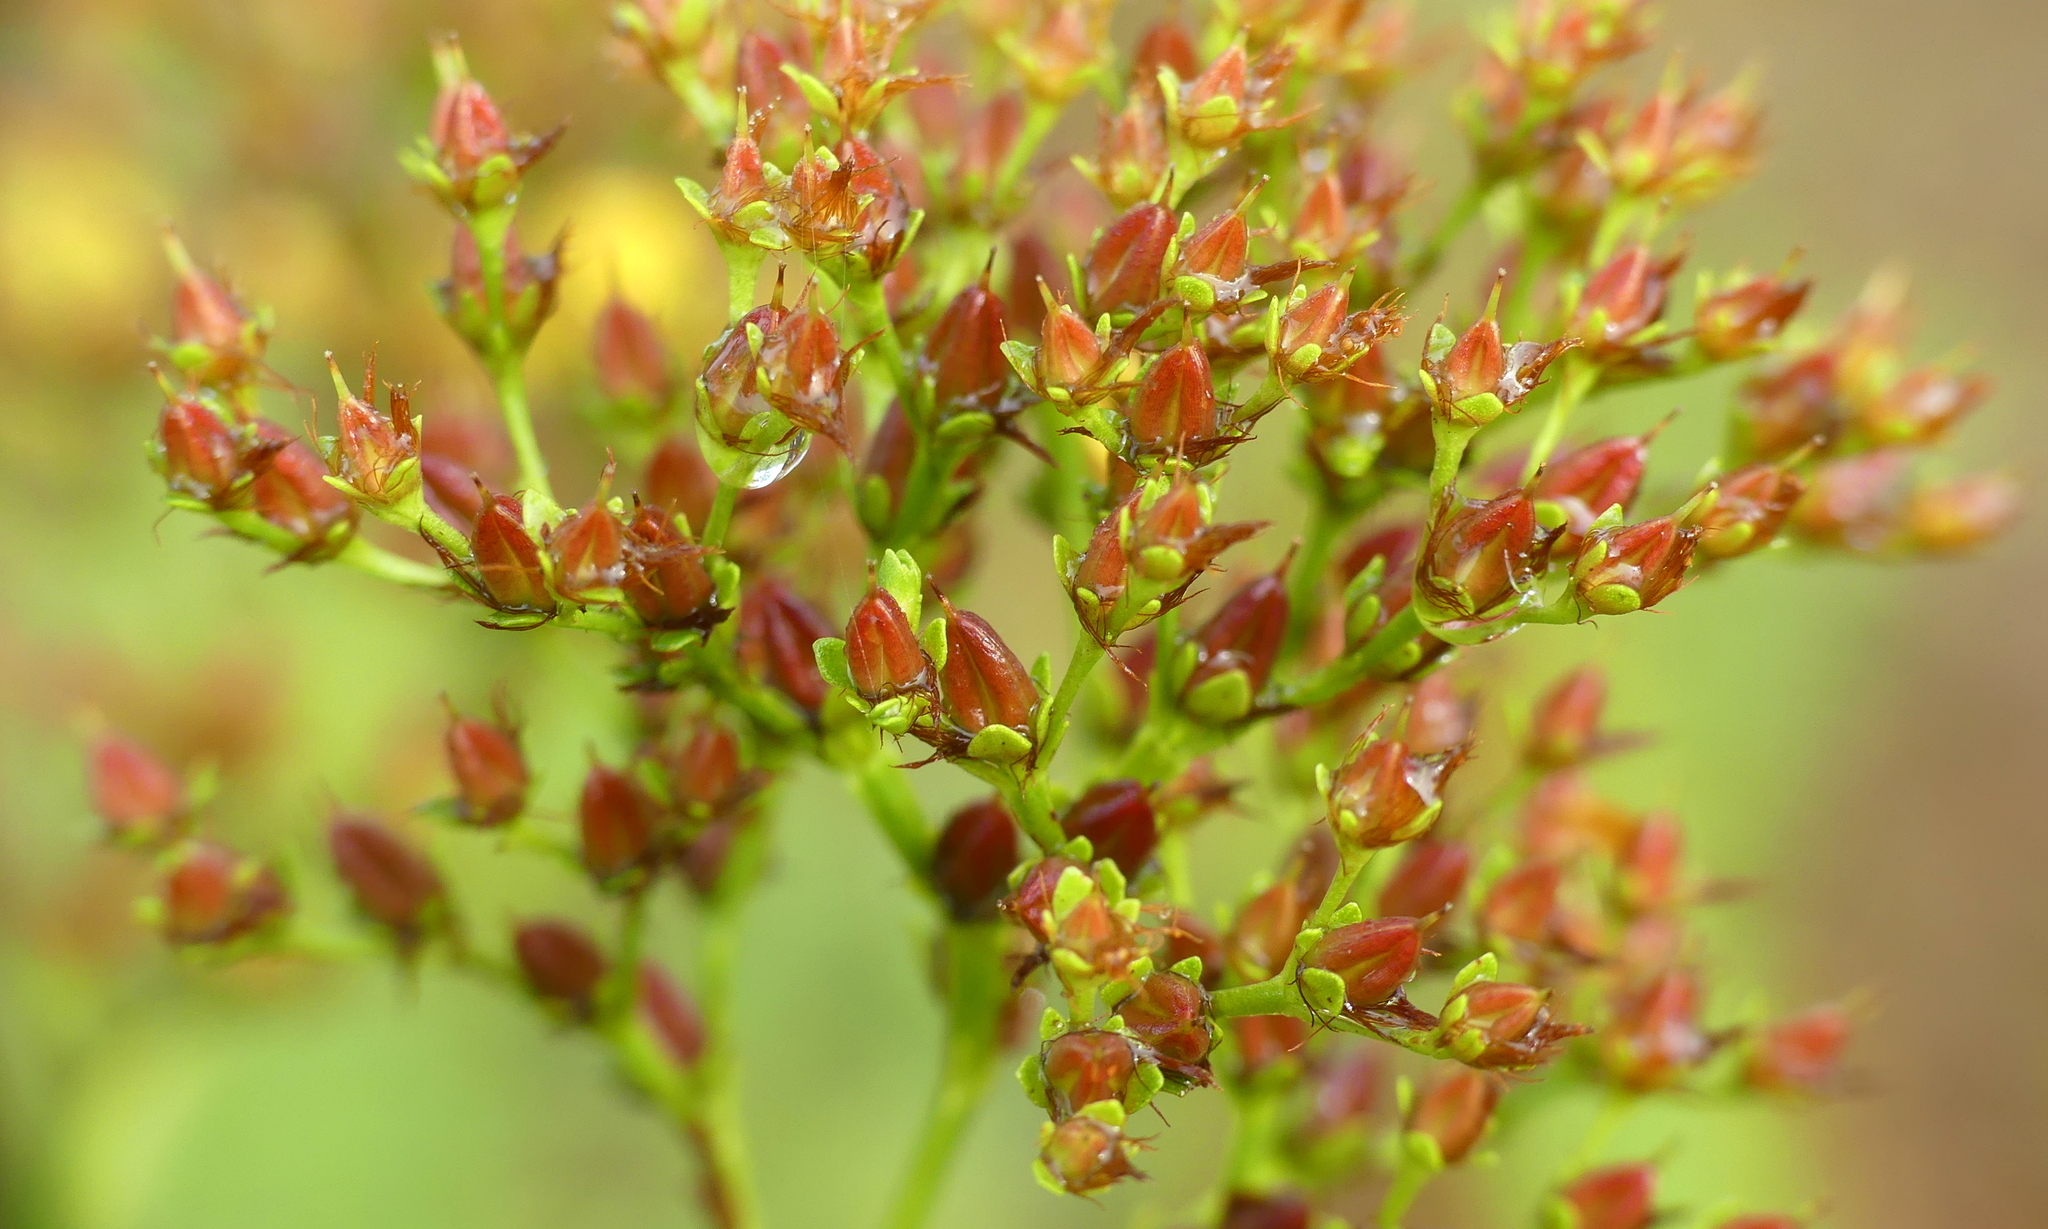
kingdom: Plantae
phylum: Tracheophyta
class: Magnoliopsida
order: Malpighiales
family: Hypericaceae
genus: Hypericum
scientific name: Hypericum cistifolium
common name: Round-pod st. john's-wort
